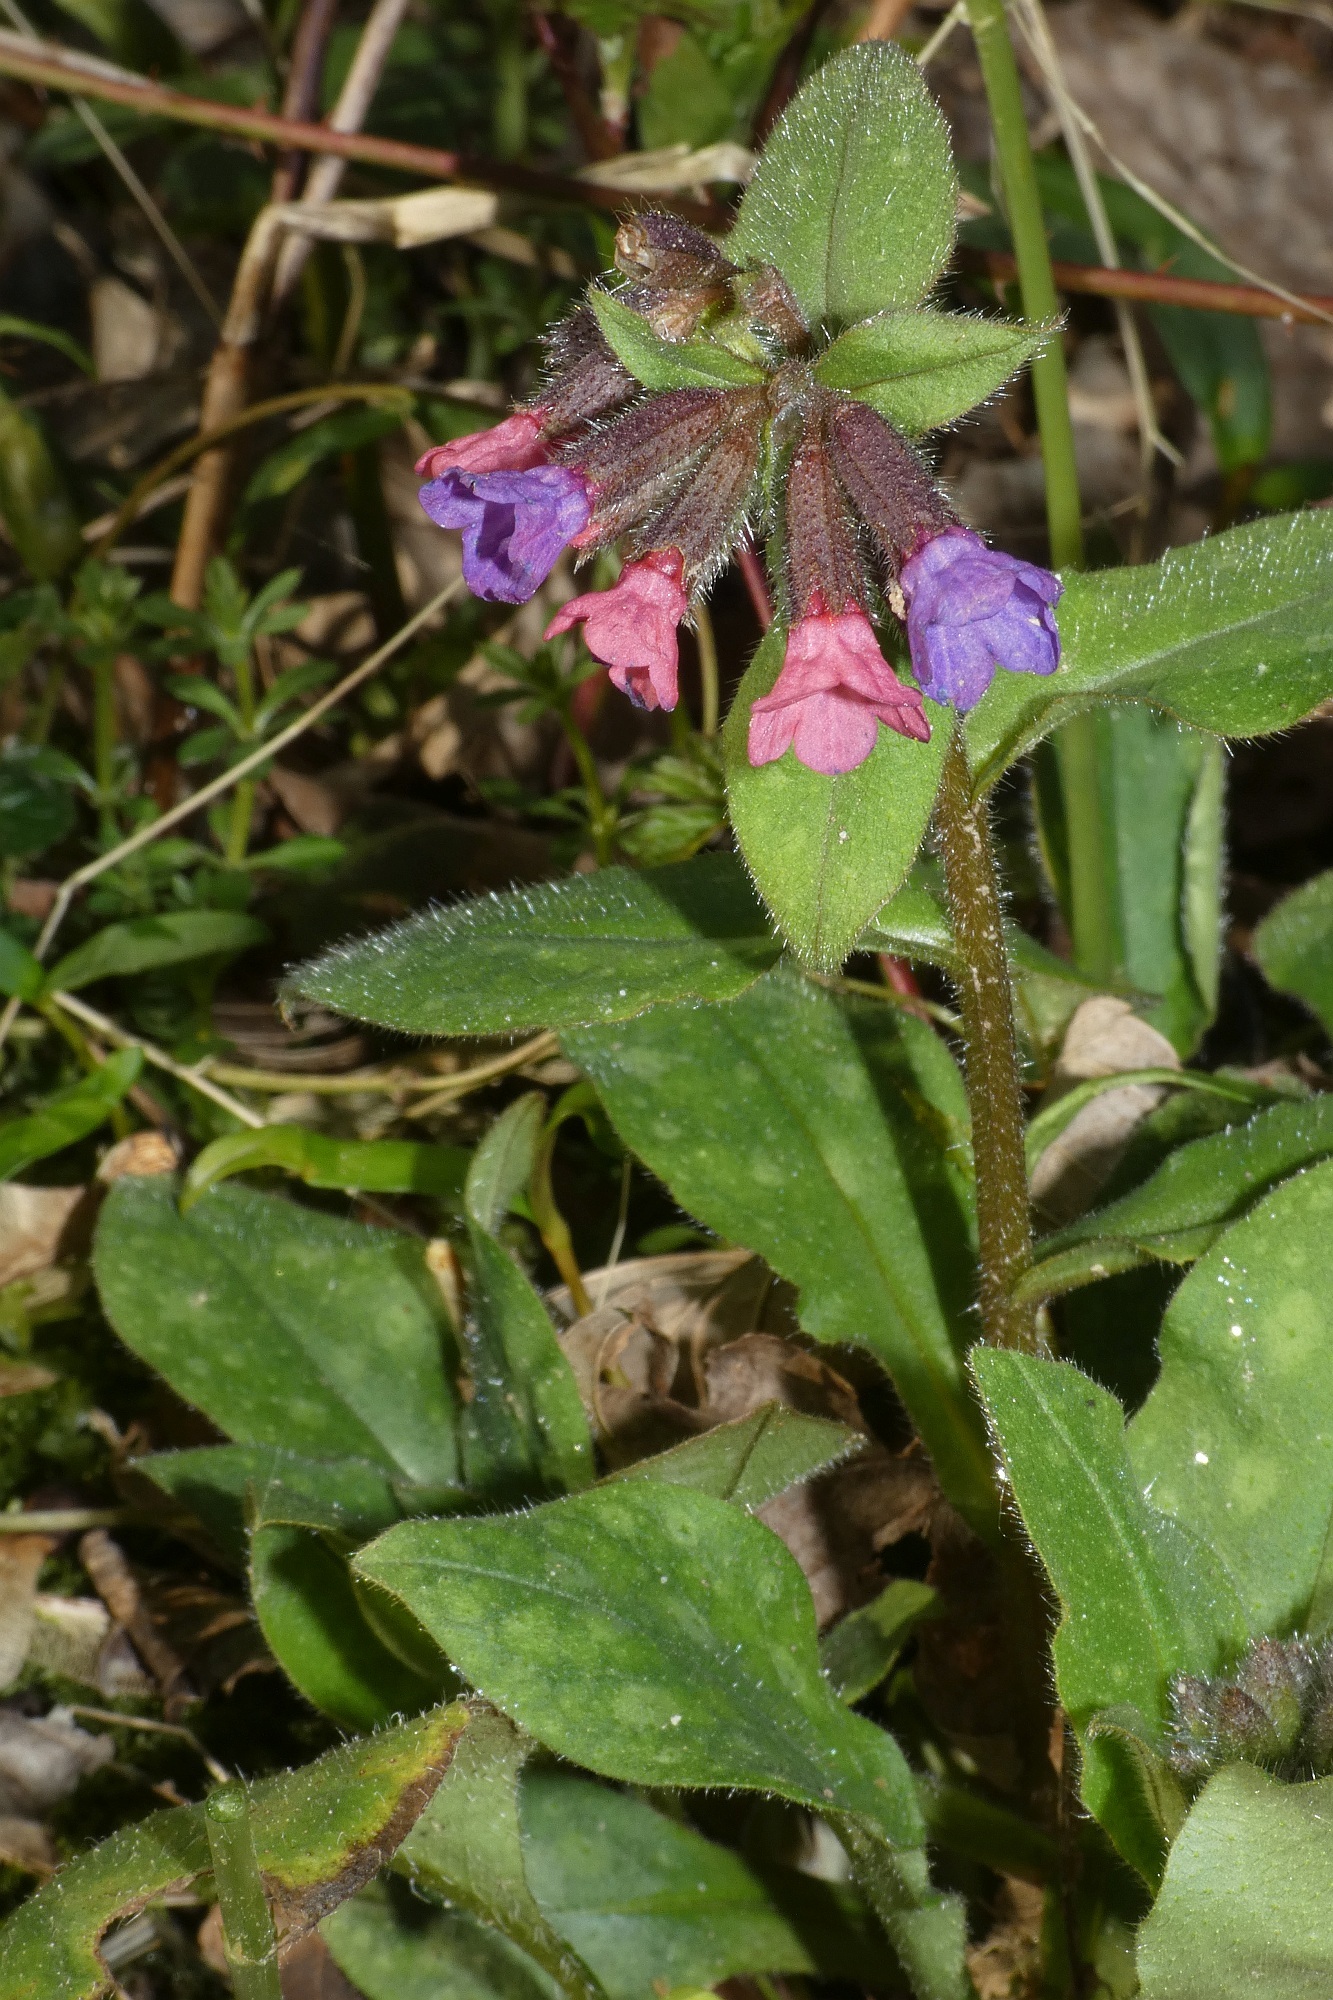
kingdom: Plantae
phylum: Tracheophyta
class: Magnoliopsida
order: Boraginales
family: Boraginaceae
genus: Pulmonaria
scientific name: Pulmonaria officinalis
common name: Lungwort
